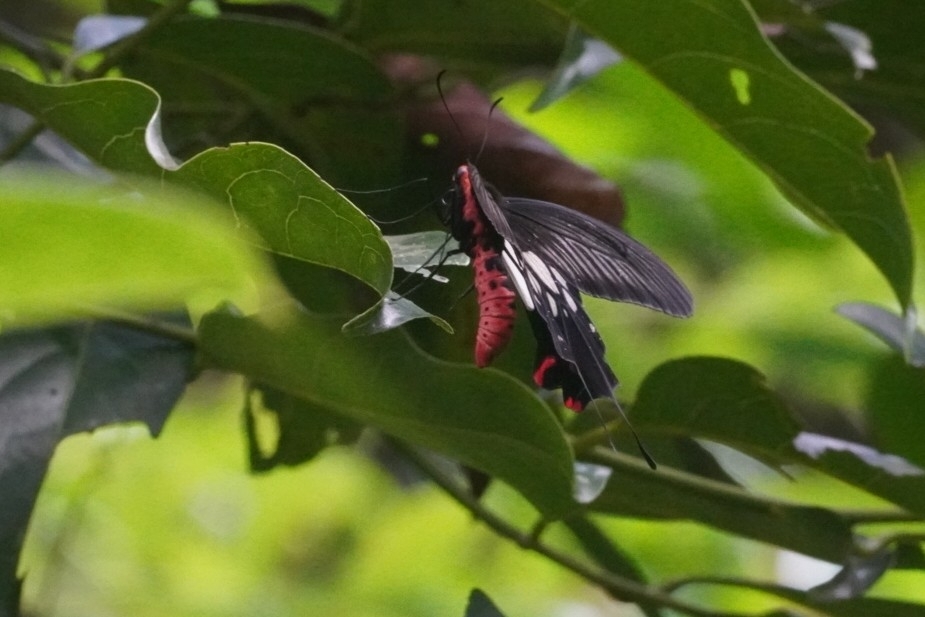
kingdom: Animalia
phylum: Arthropoda
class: Insecta
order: Lepidoptera
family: Papilionidae
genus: Losaria
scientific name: Losaria
